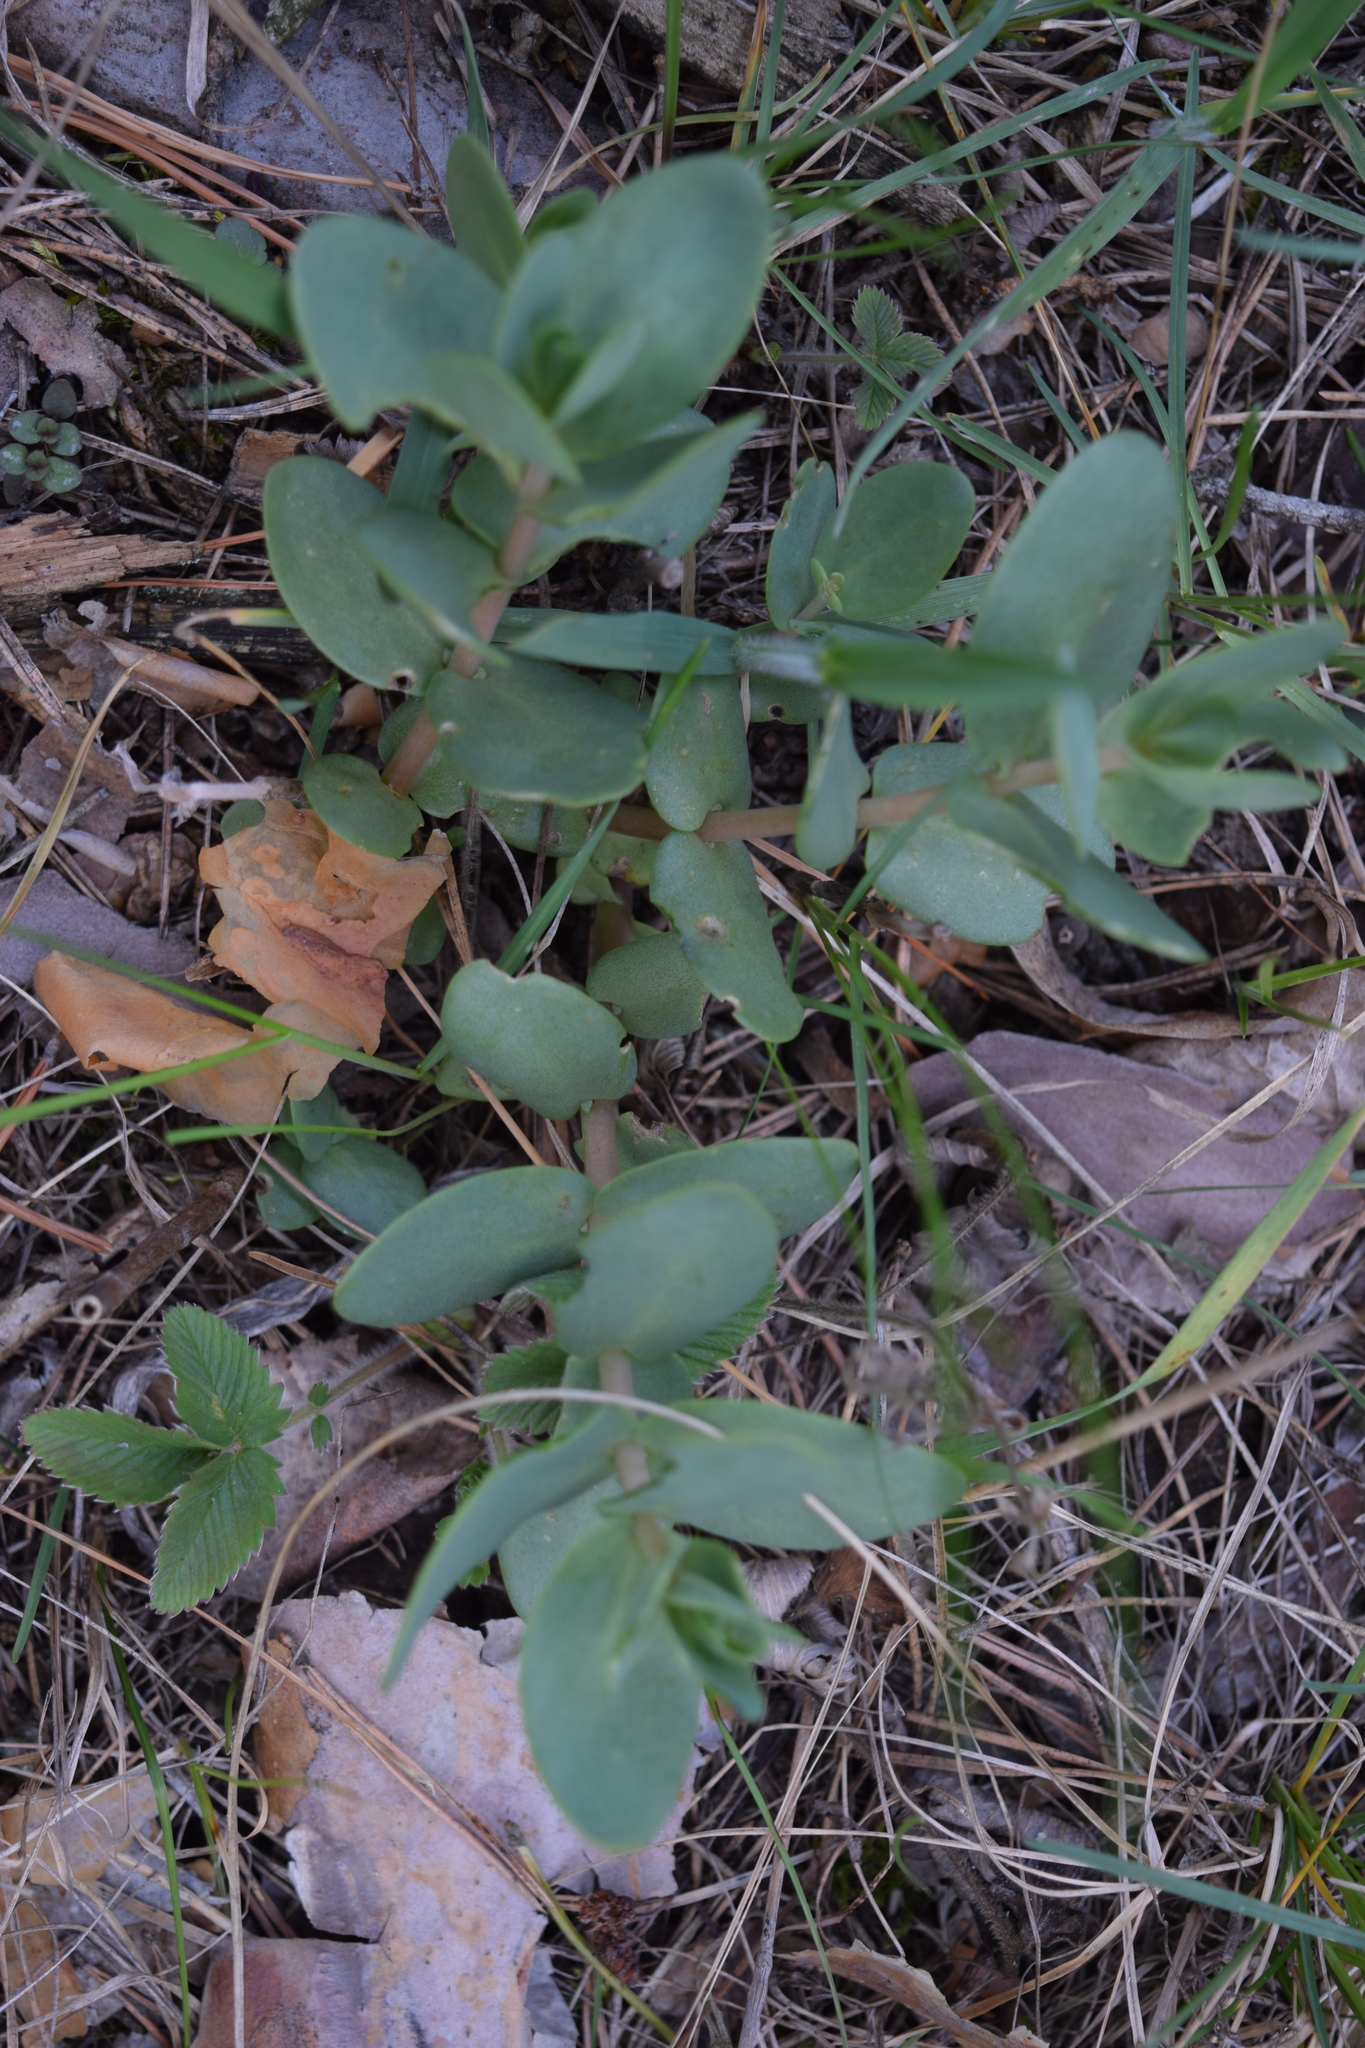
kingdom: Plantae
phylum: Tracheophyta
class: Magnoliopsida
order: Saxifragales
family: Crassulaceae
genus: Hylotelephium
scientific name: Hylotelephium maximum
